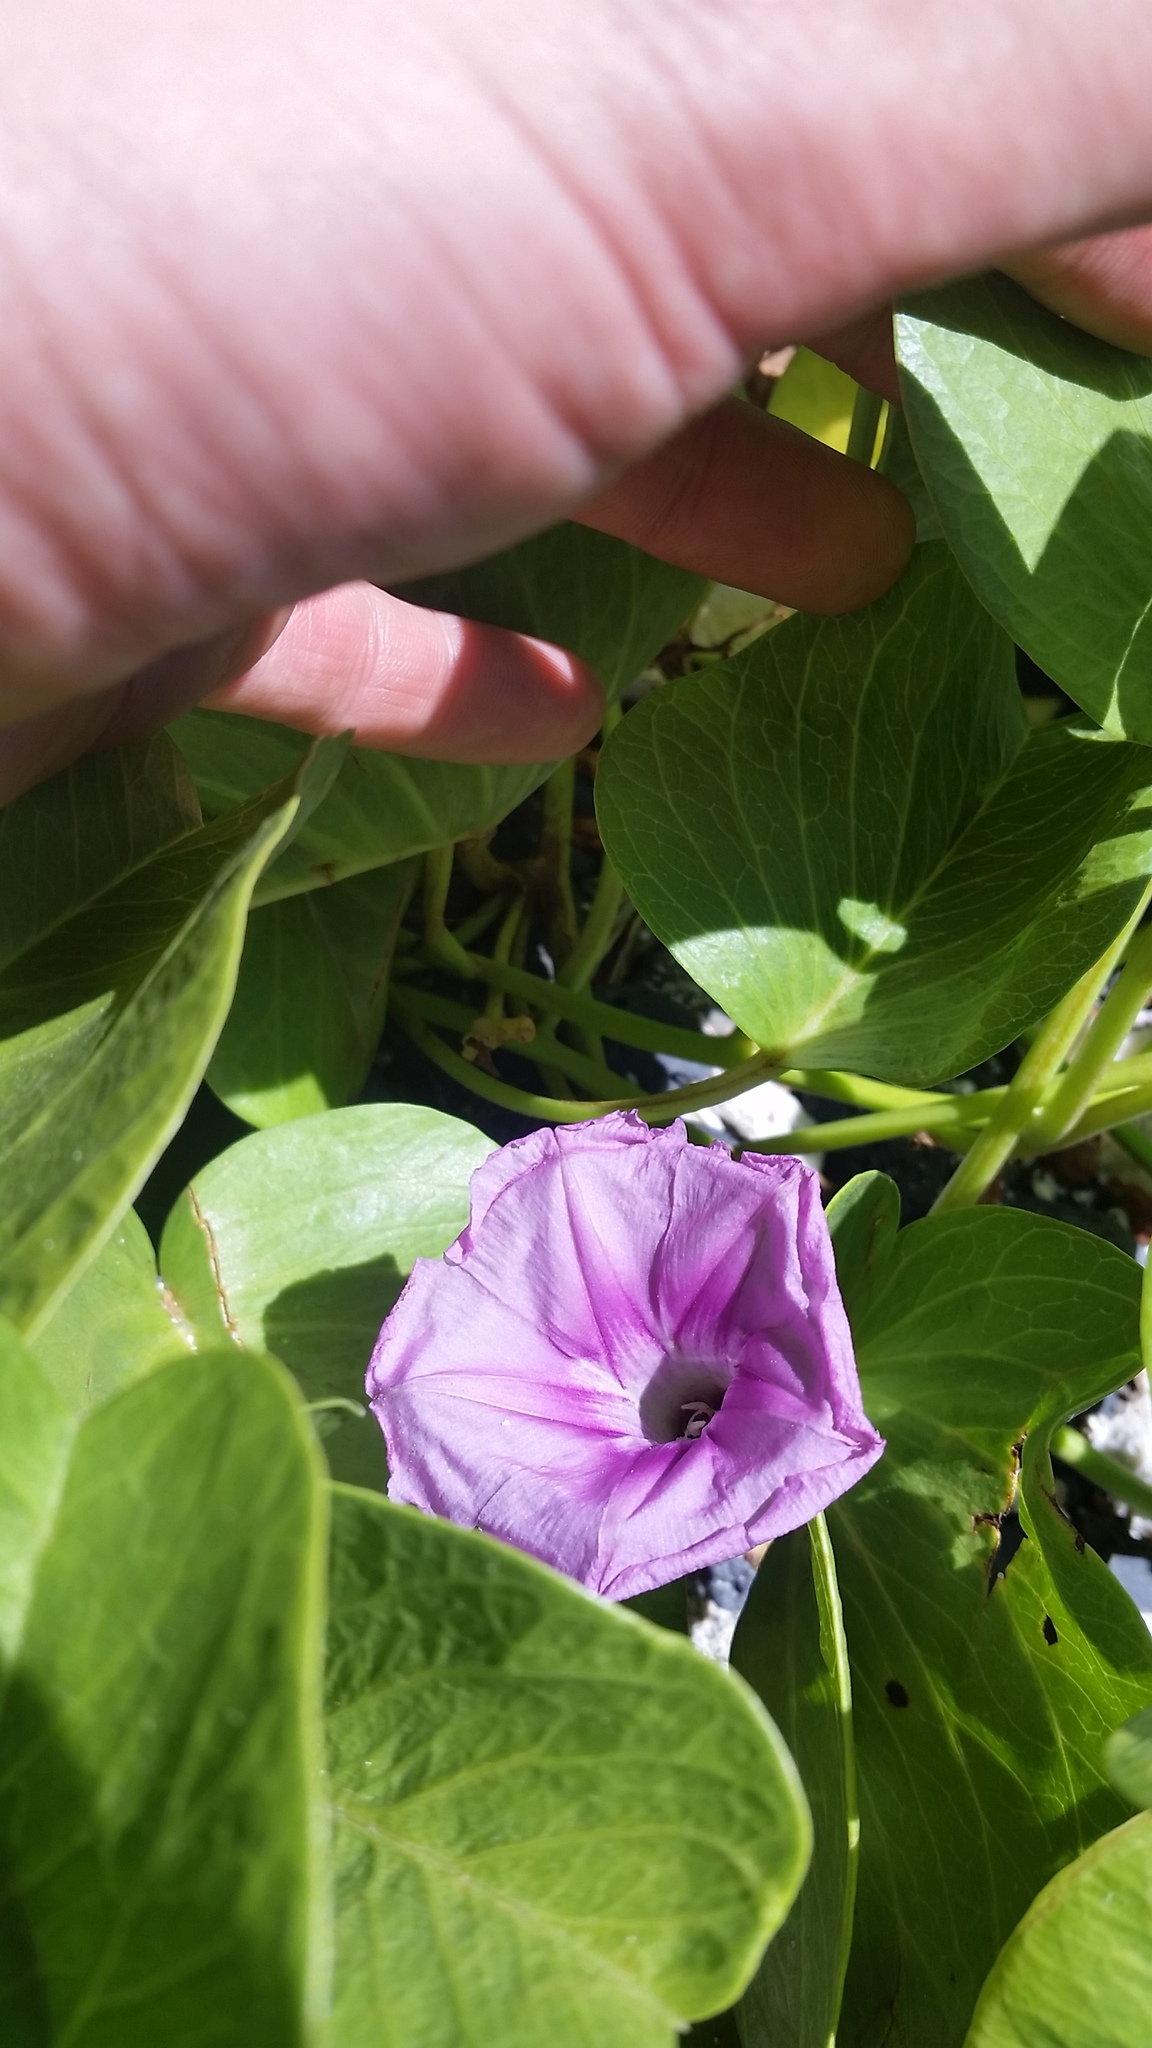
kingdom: Plantae
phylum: Tracheophyta
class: Magnoliopsida
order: Solanales
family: Convolvulaceae
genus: Ipomoea
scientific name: Ipomoea pes-caprae
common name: Beach morning glory
